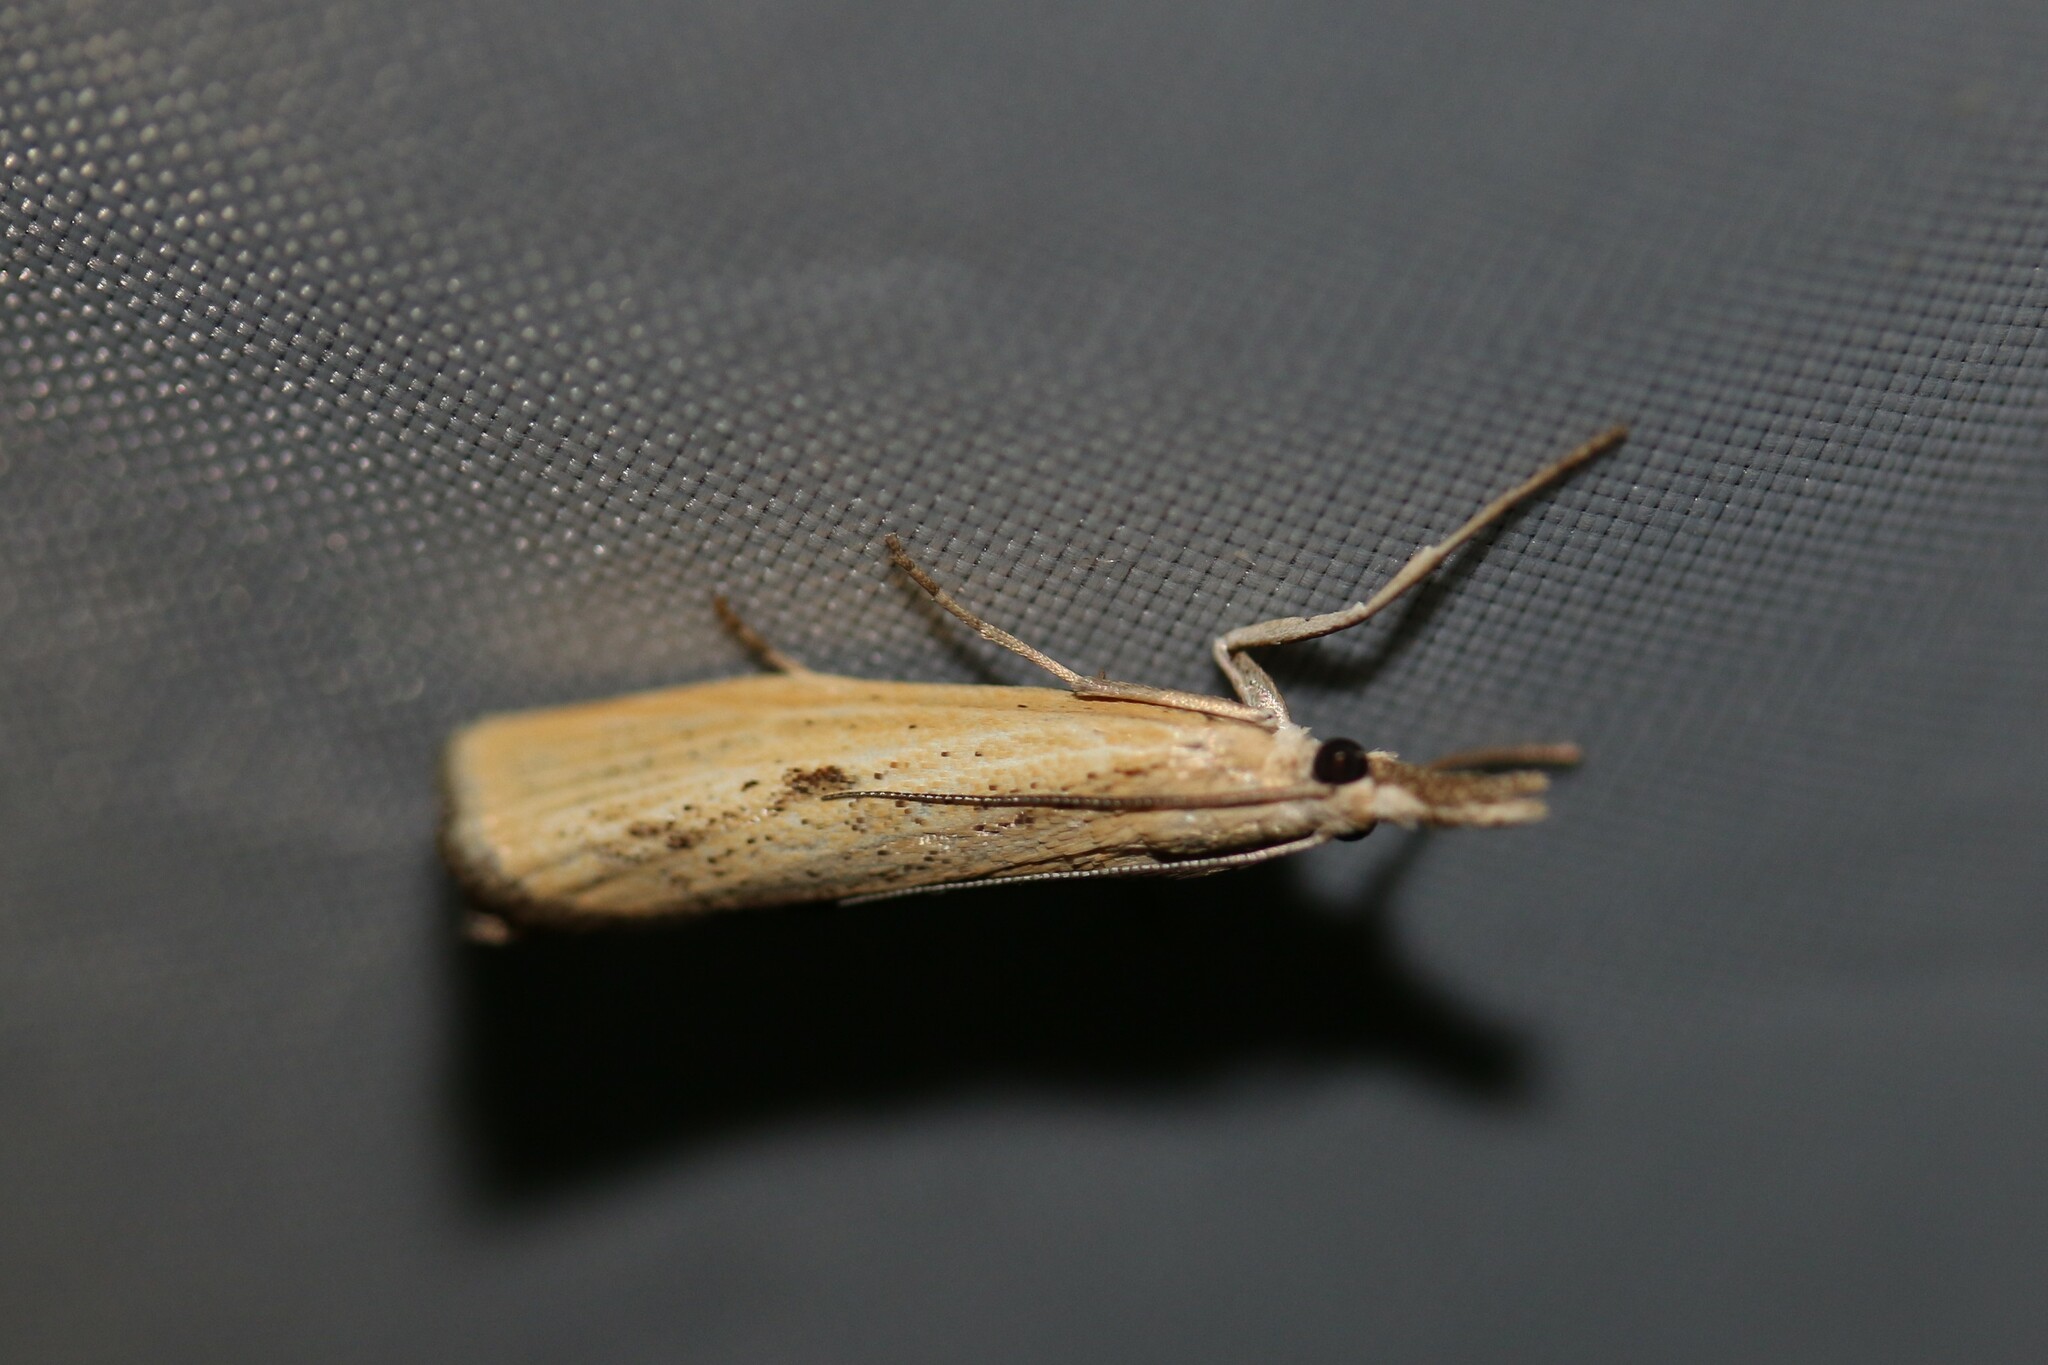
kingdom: Animalia
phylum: Arthropoda
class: Insecta
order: Lepidoptera
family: Crambidae
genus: Agriphila
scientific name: Agriphila inquinatella
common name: Barred grass-veneer
